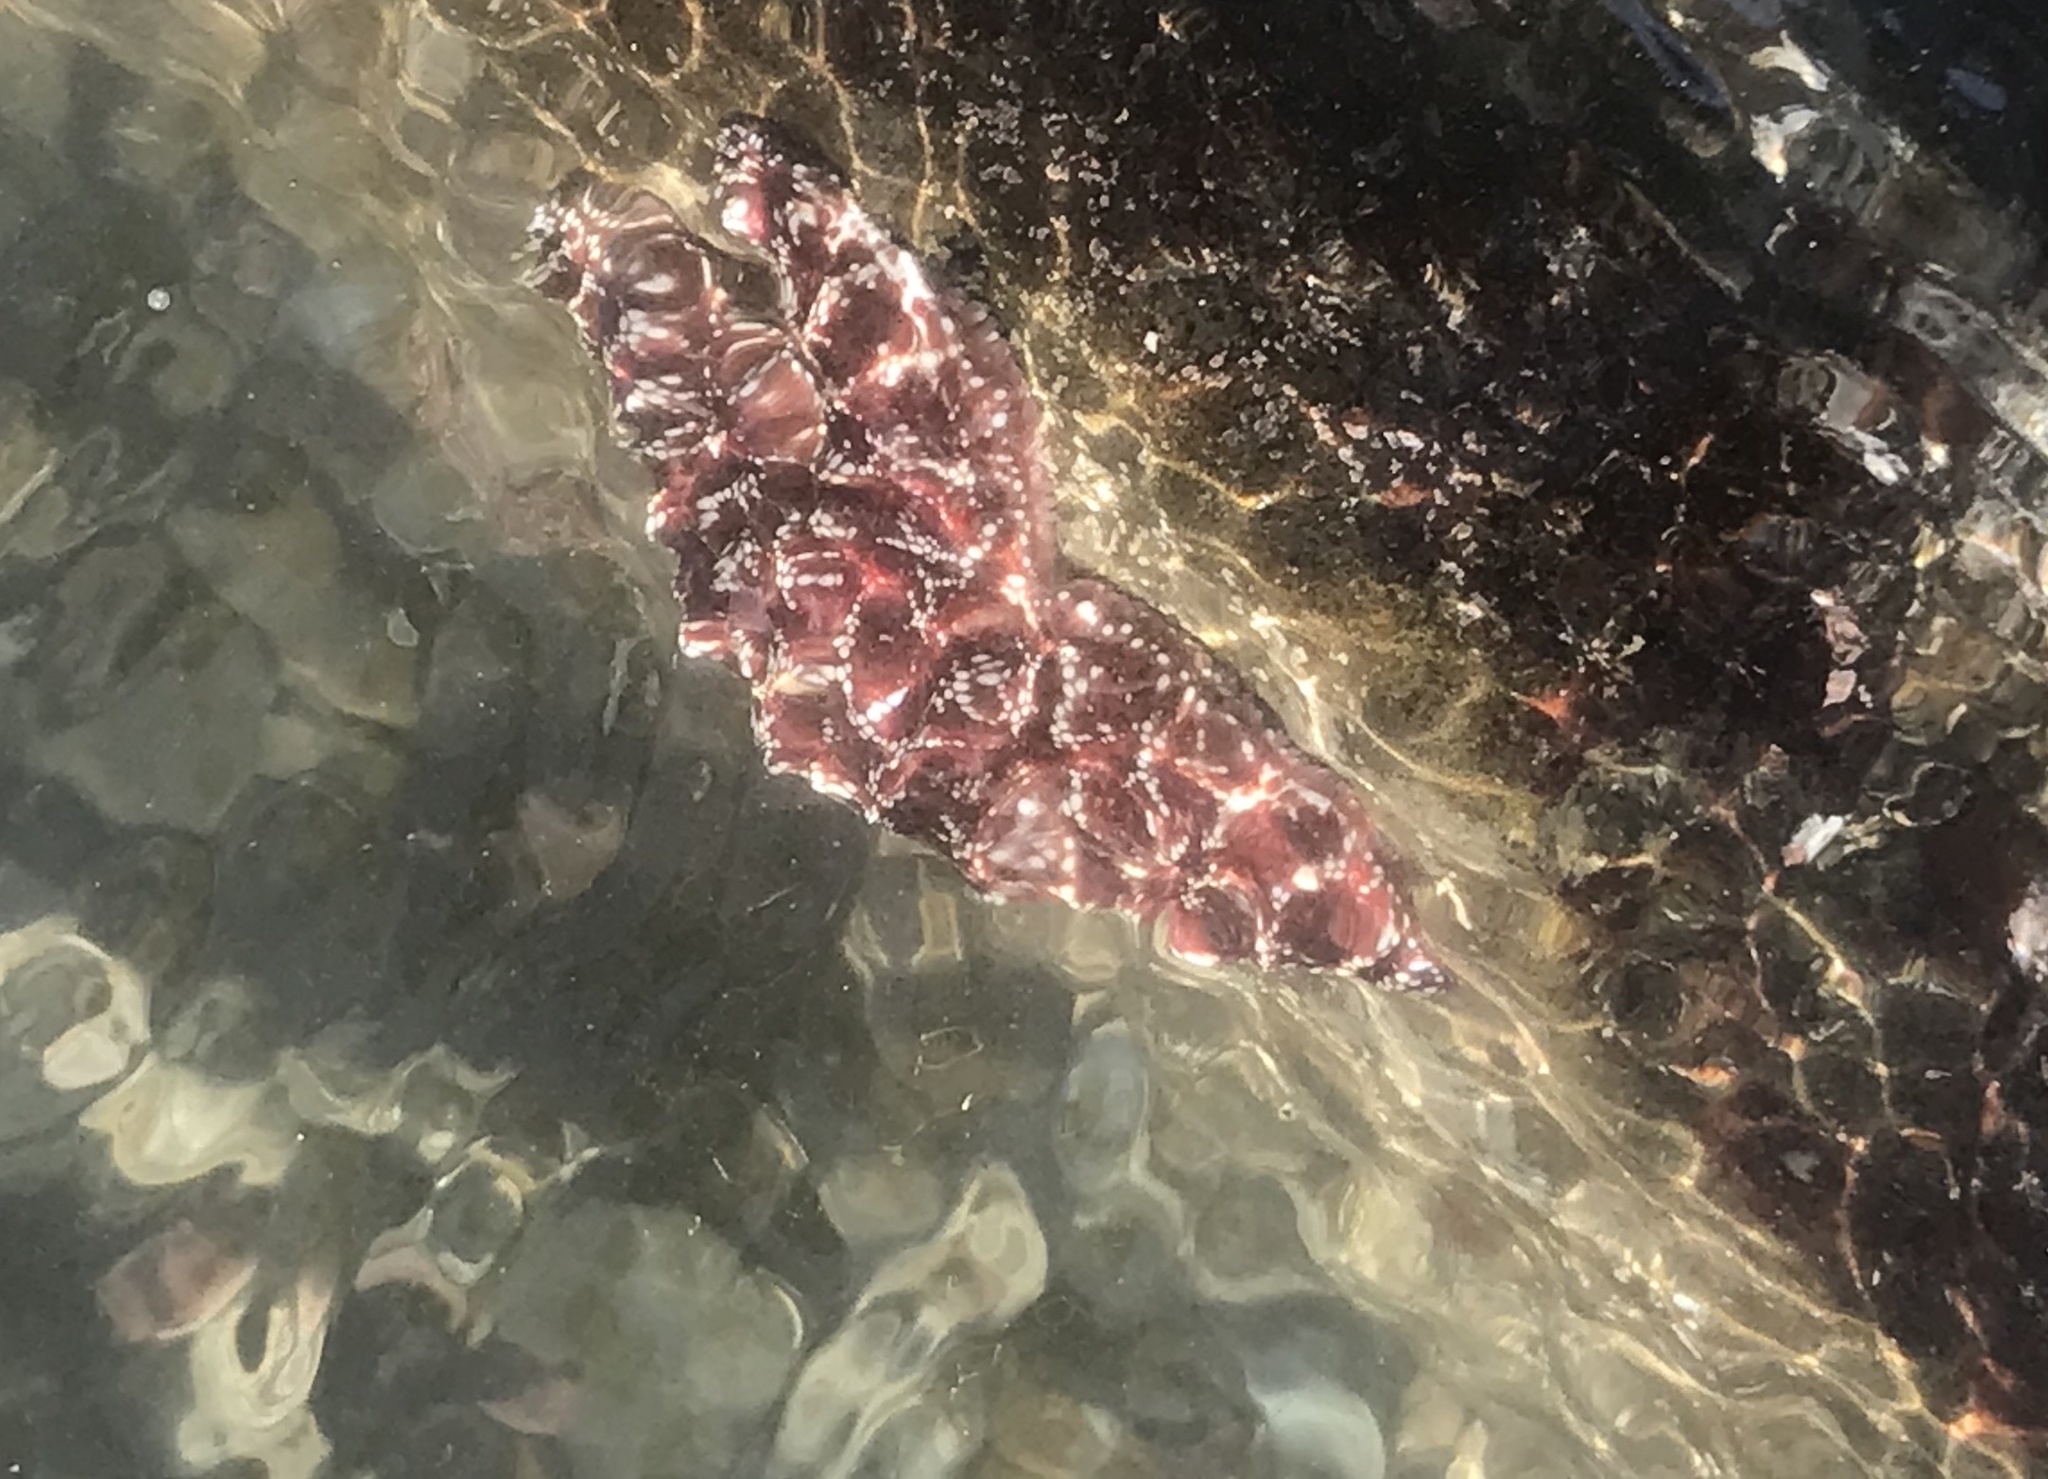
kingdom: Animalia
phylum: Echinodermata
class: Asteroidea
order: Forcipulatida
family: Asteriidae
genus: Pisaster
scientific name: Pisaster ochraceus
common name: Ochre stars
